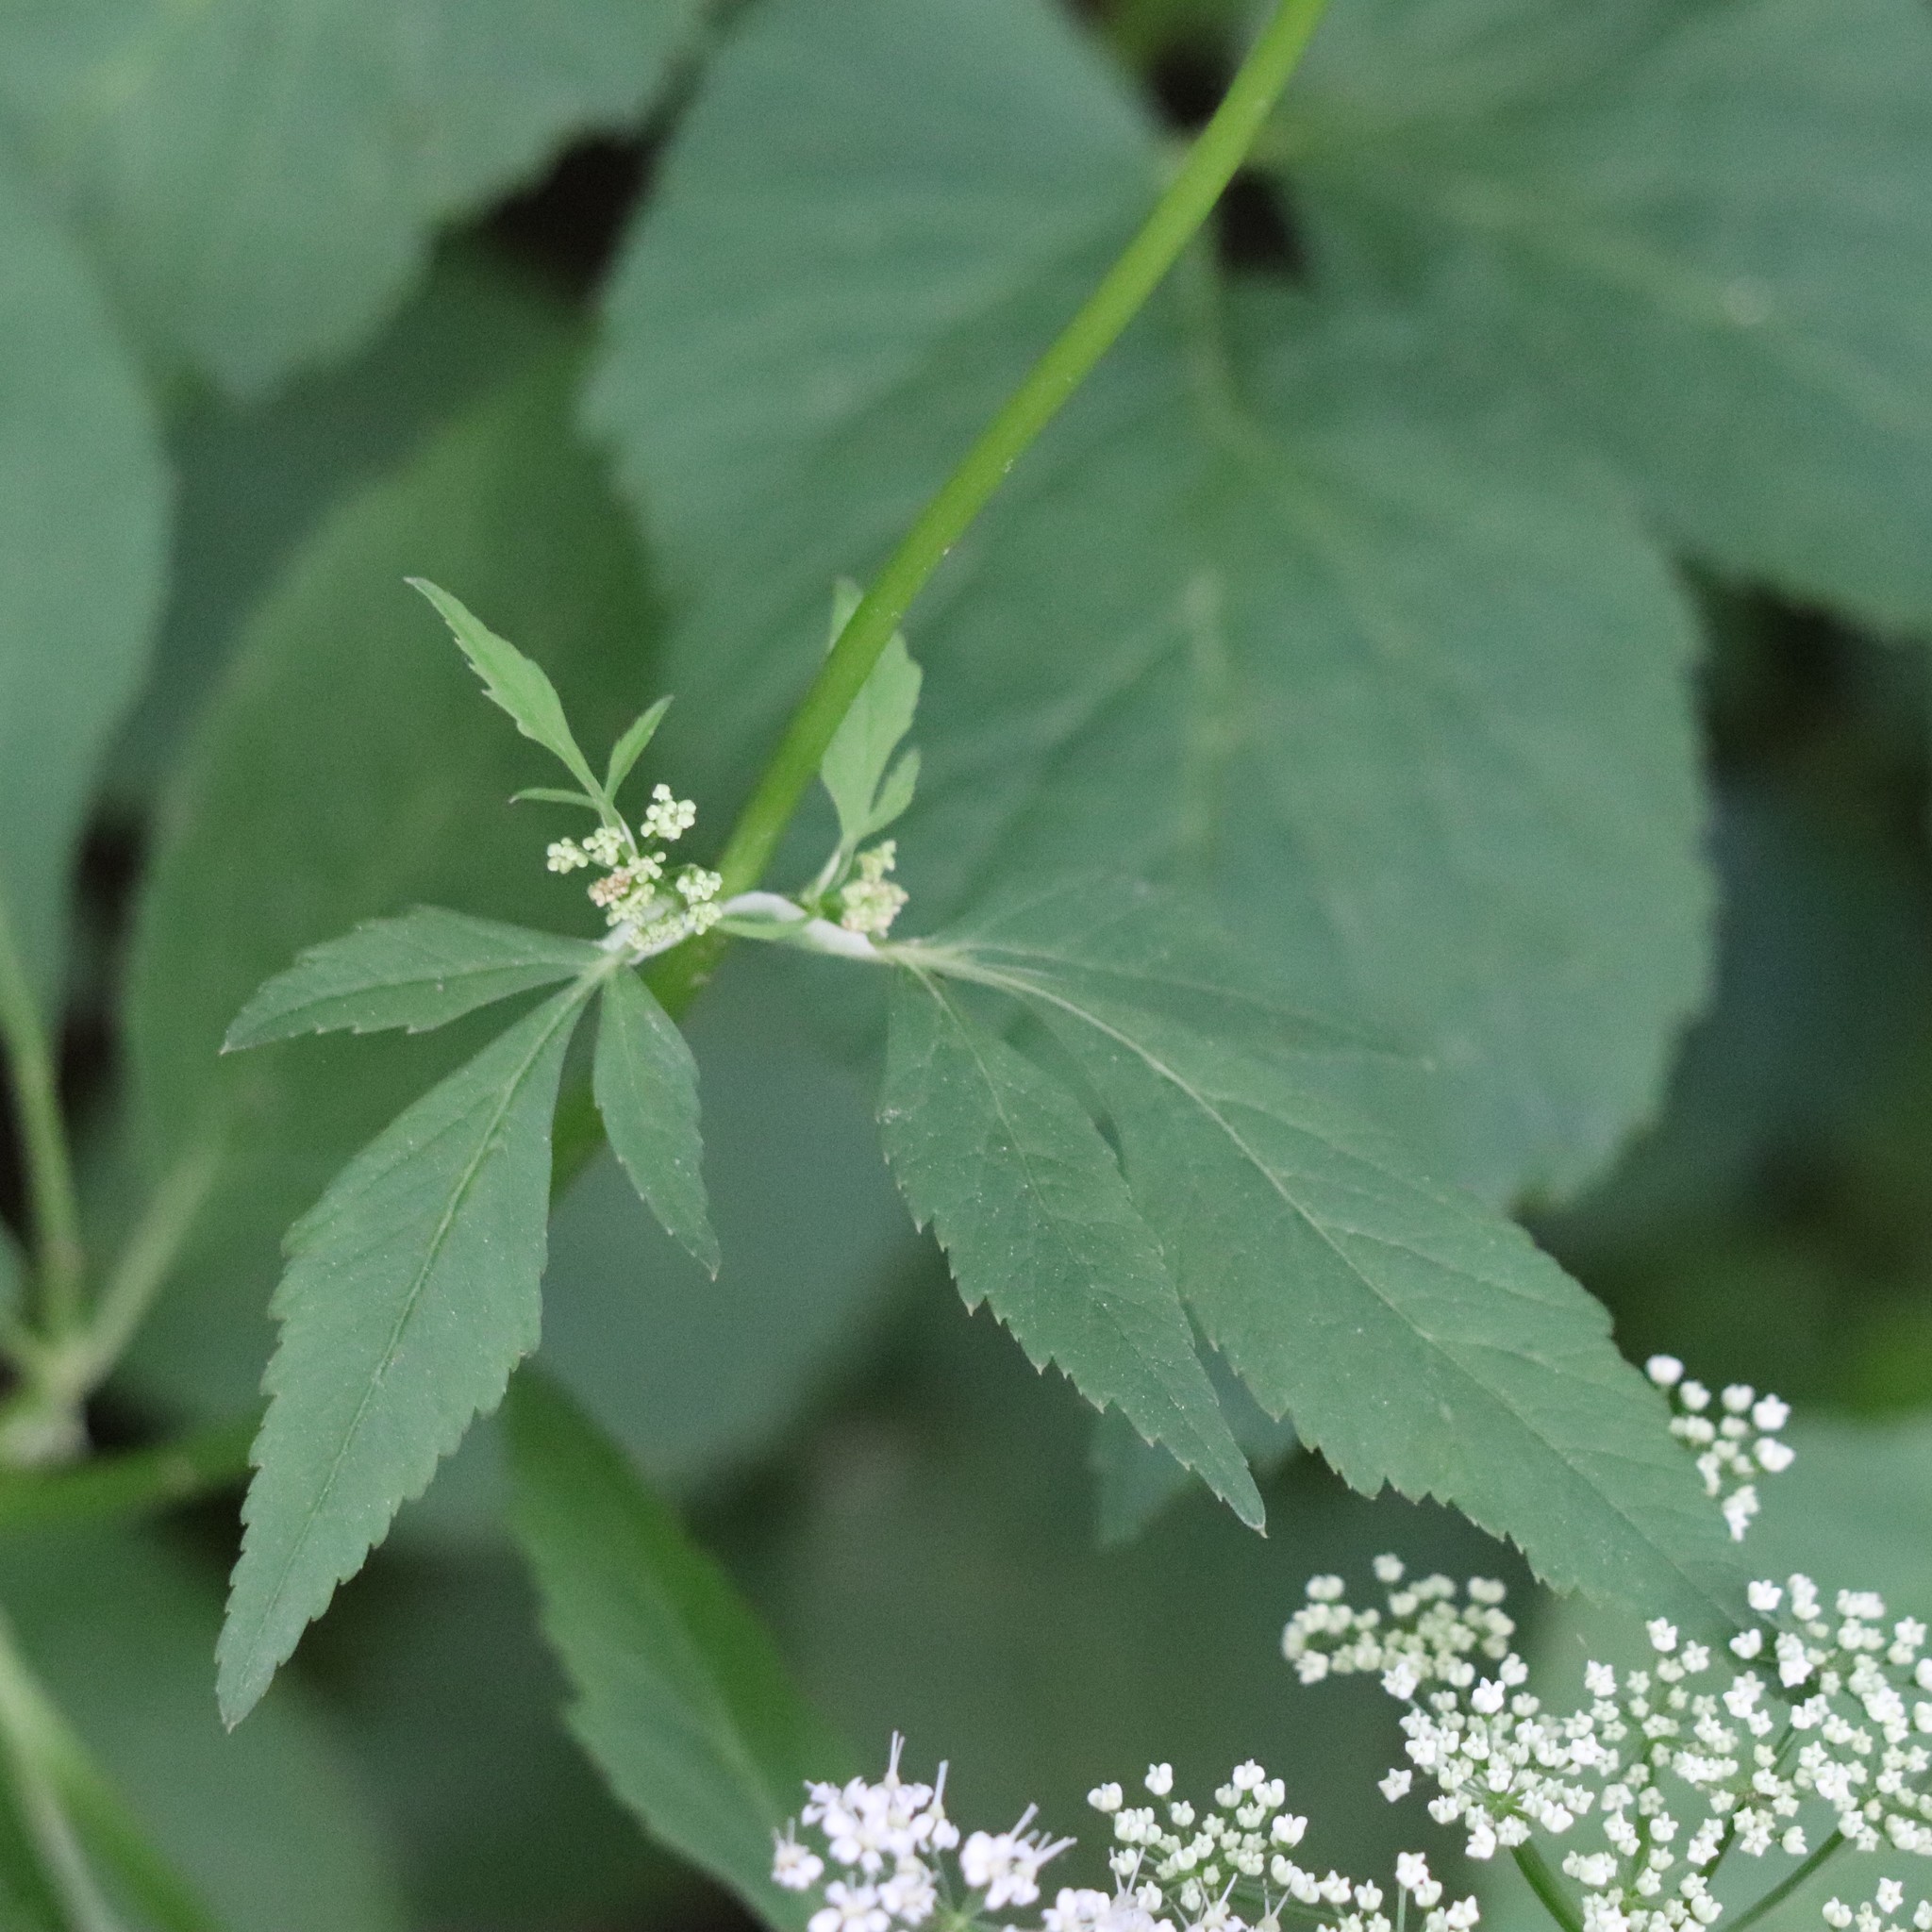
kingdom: Plantae
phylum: Tracheophyta
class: Magnoliopsida
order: Apiales
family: Apiaceae
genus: Aegopodium
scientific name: Aegopodium podagraria
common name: Ground-elder
